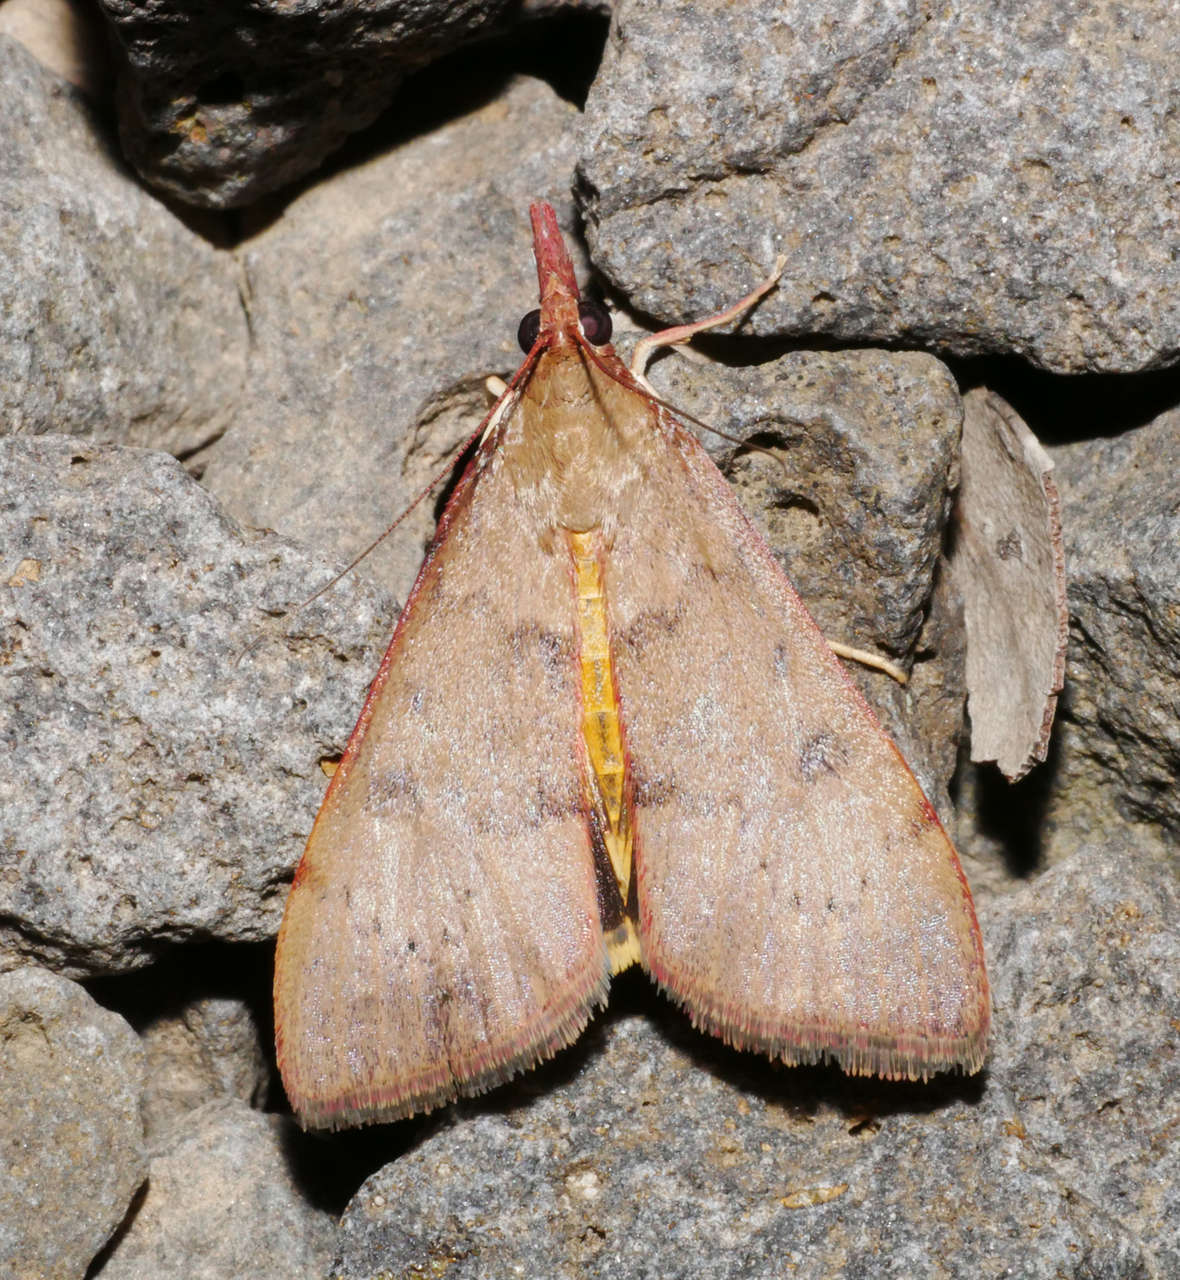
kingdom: Animalia
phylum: Arthropoda
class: Insecta
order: Lepidoptera
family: Crambidae
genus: Uresiphita
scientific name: Uresiphita ornithopteralis
